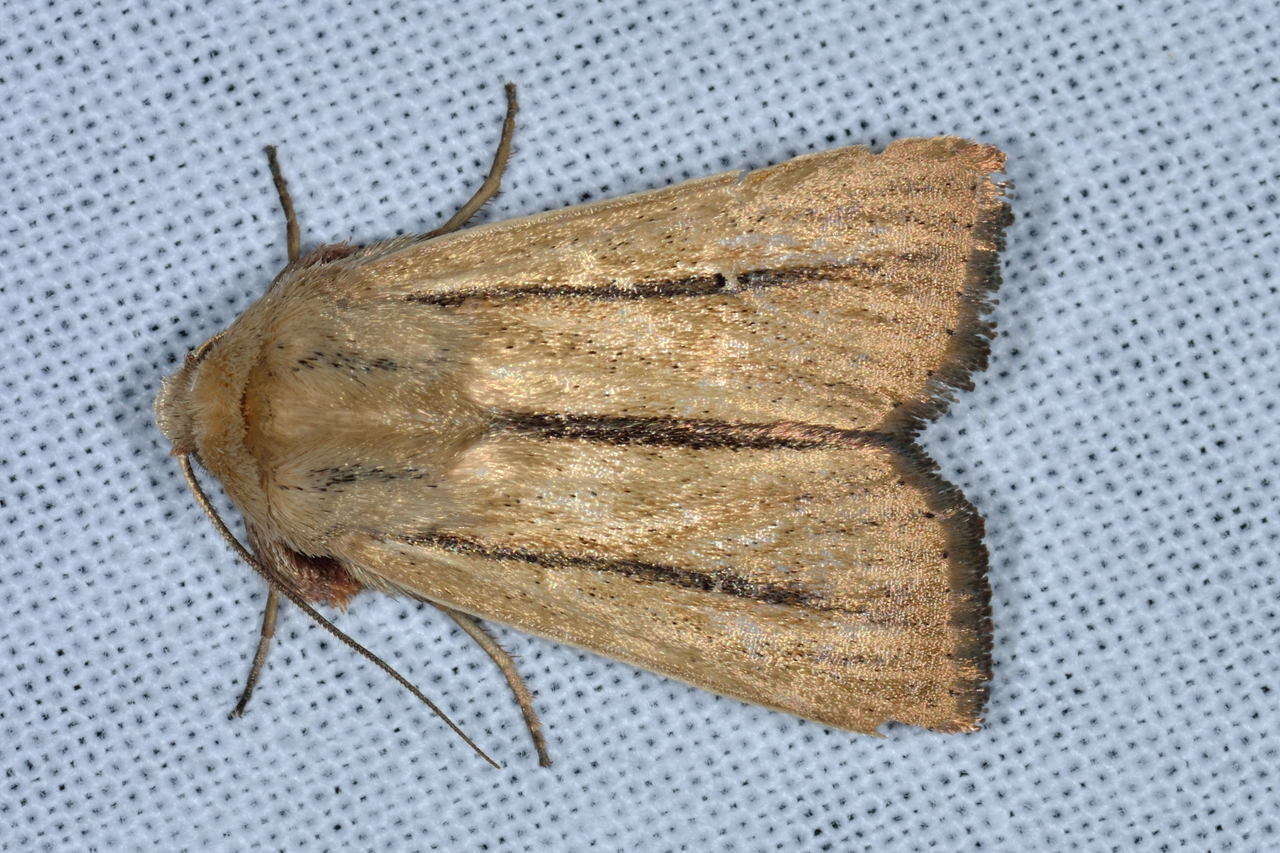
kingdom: Animalia
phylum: Arthropoda
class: Insecta
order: Lepidoptera
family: Noctuidae
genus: Leucania
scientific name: Leucania diatrecta
